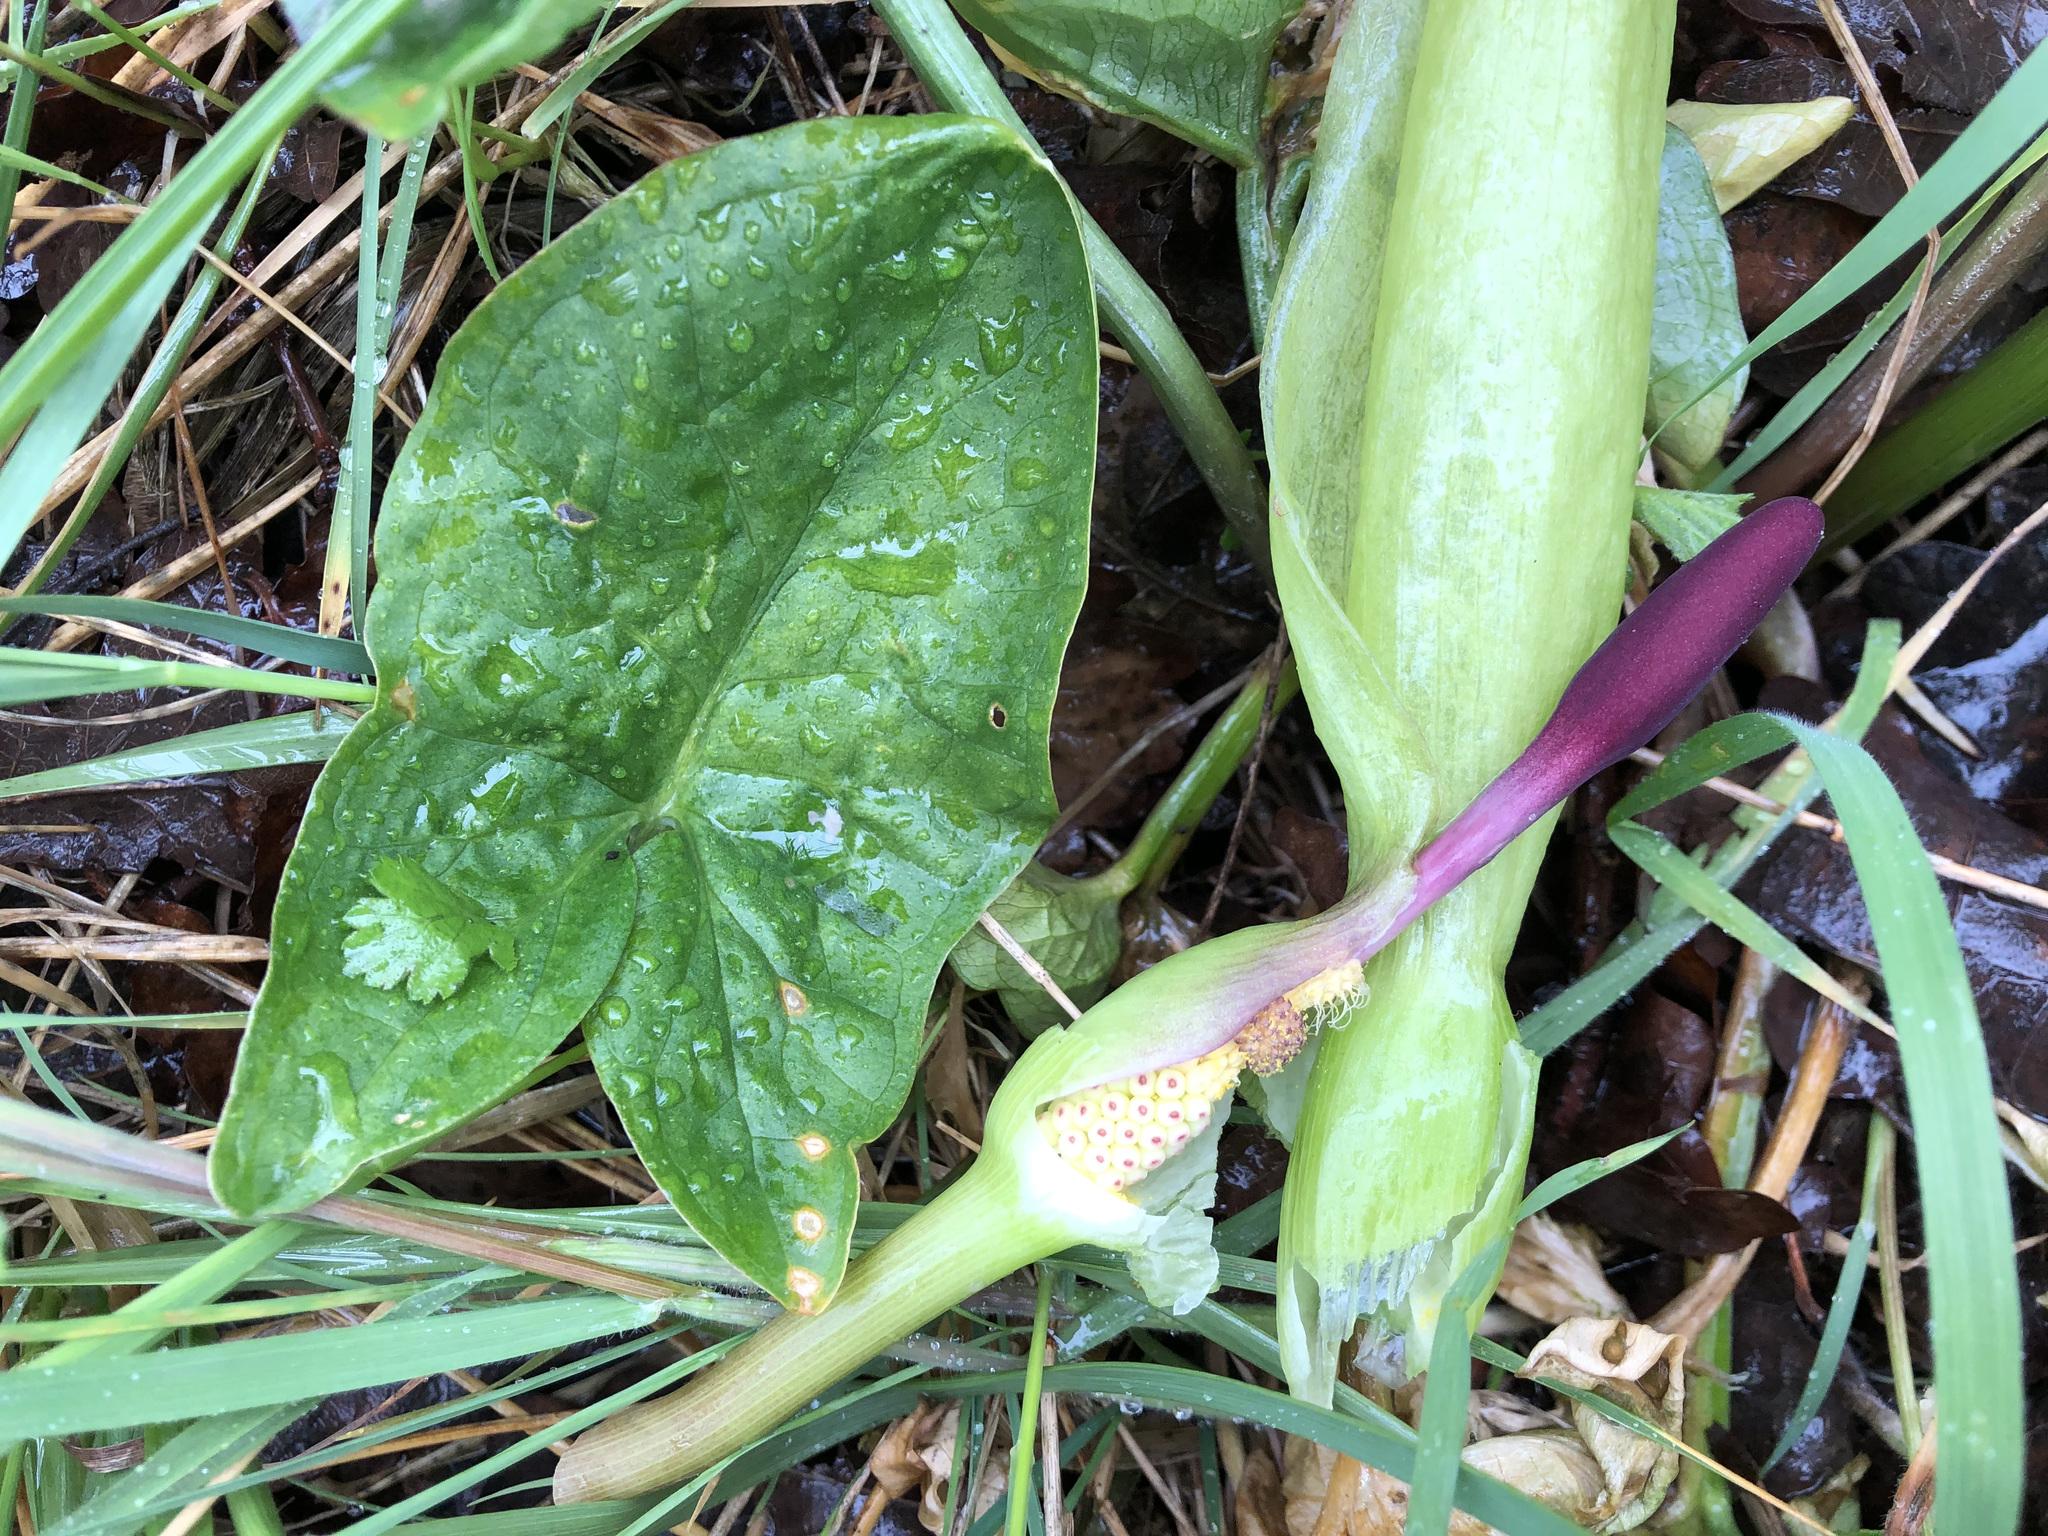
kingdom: Plantae
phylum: Tracheophyta
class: Liliopsida
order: Alismatales
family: Araceae
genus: Arum
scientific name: Arum maculatum
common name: Lords-and-ladies
